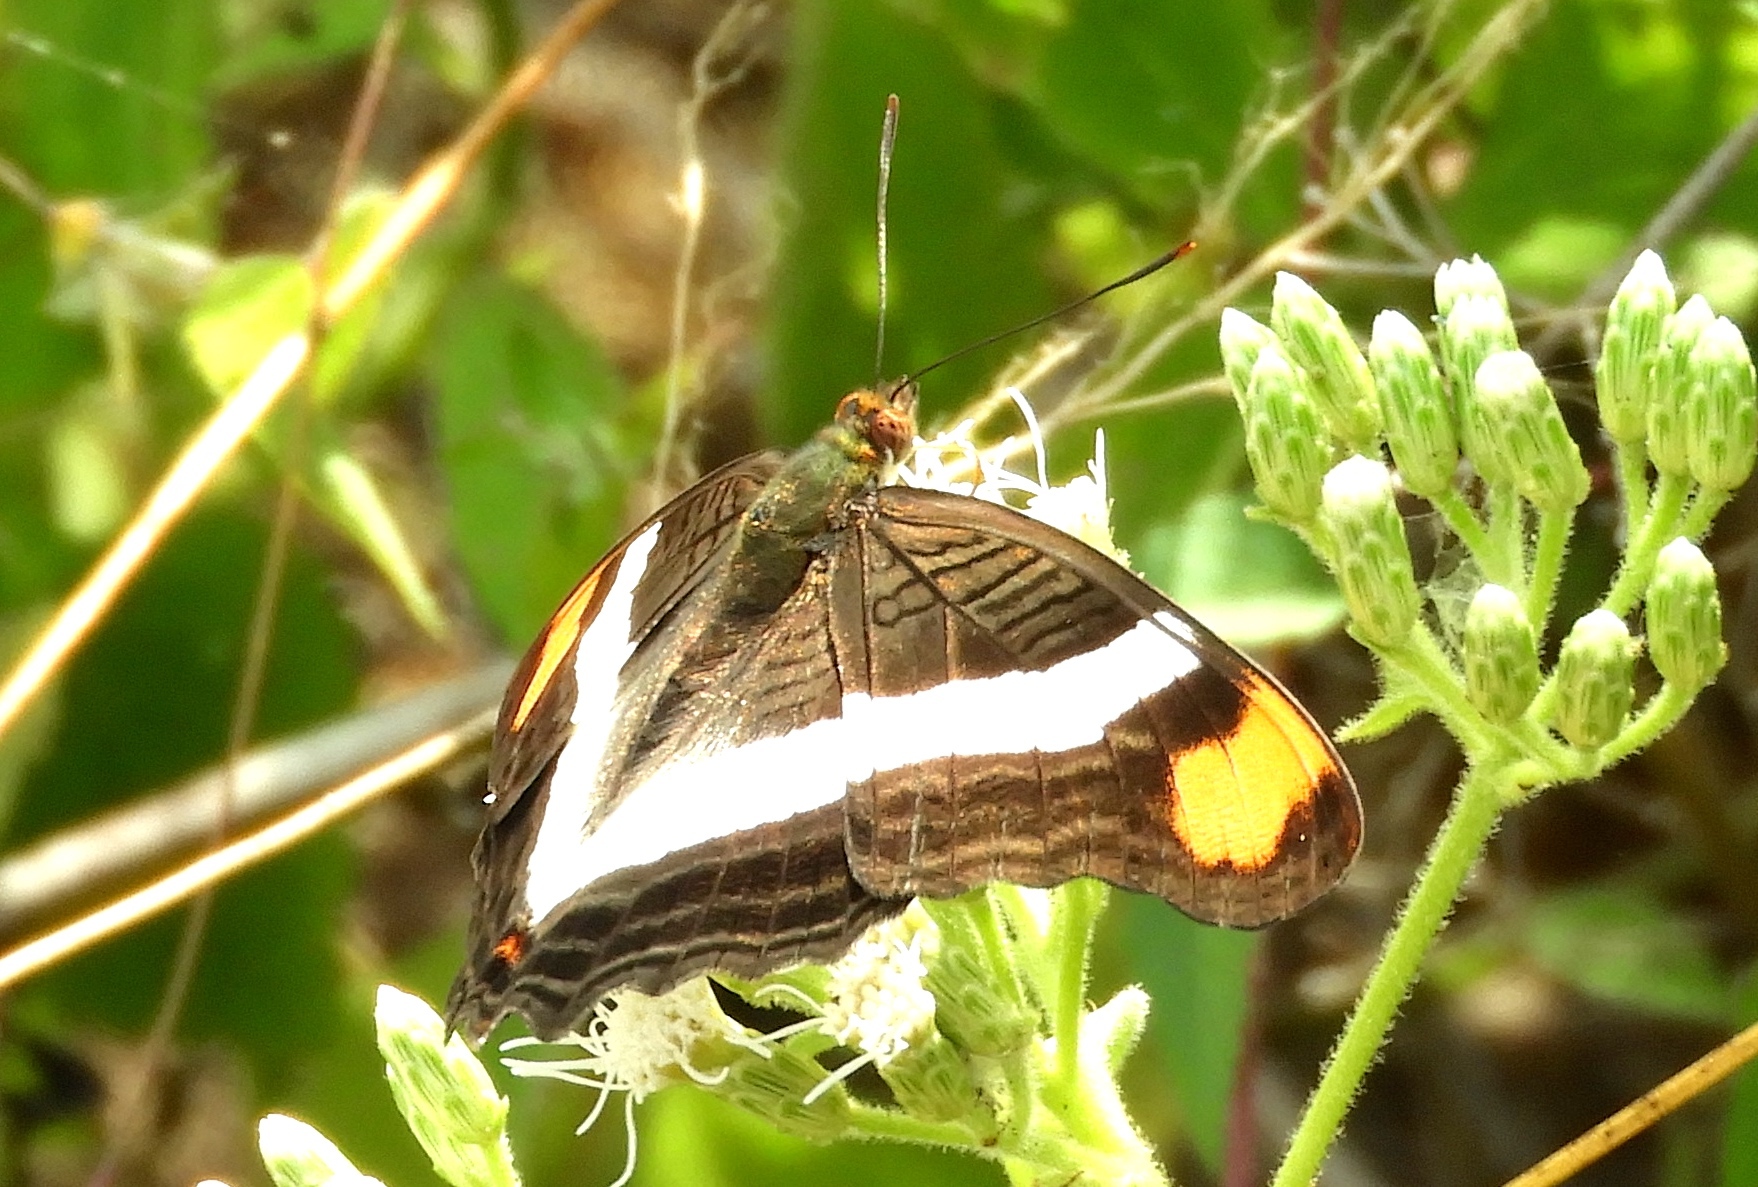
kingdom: Animalia
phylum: Arthropoda
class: Insecta
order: Lepidoptera
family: Nymphalidae
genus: Limenitis
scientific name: Limenitis fessonia
